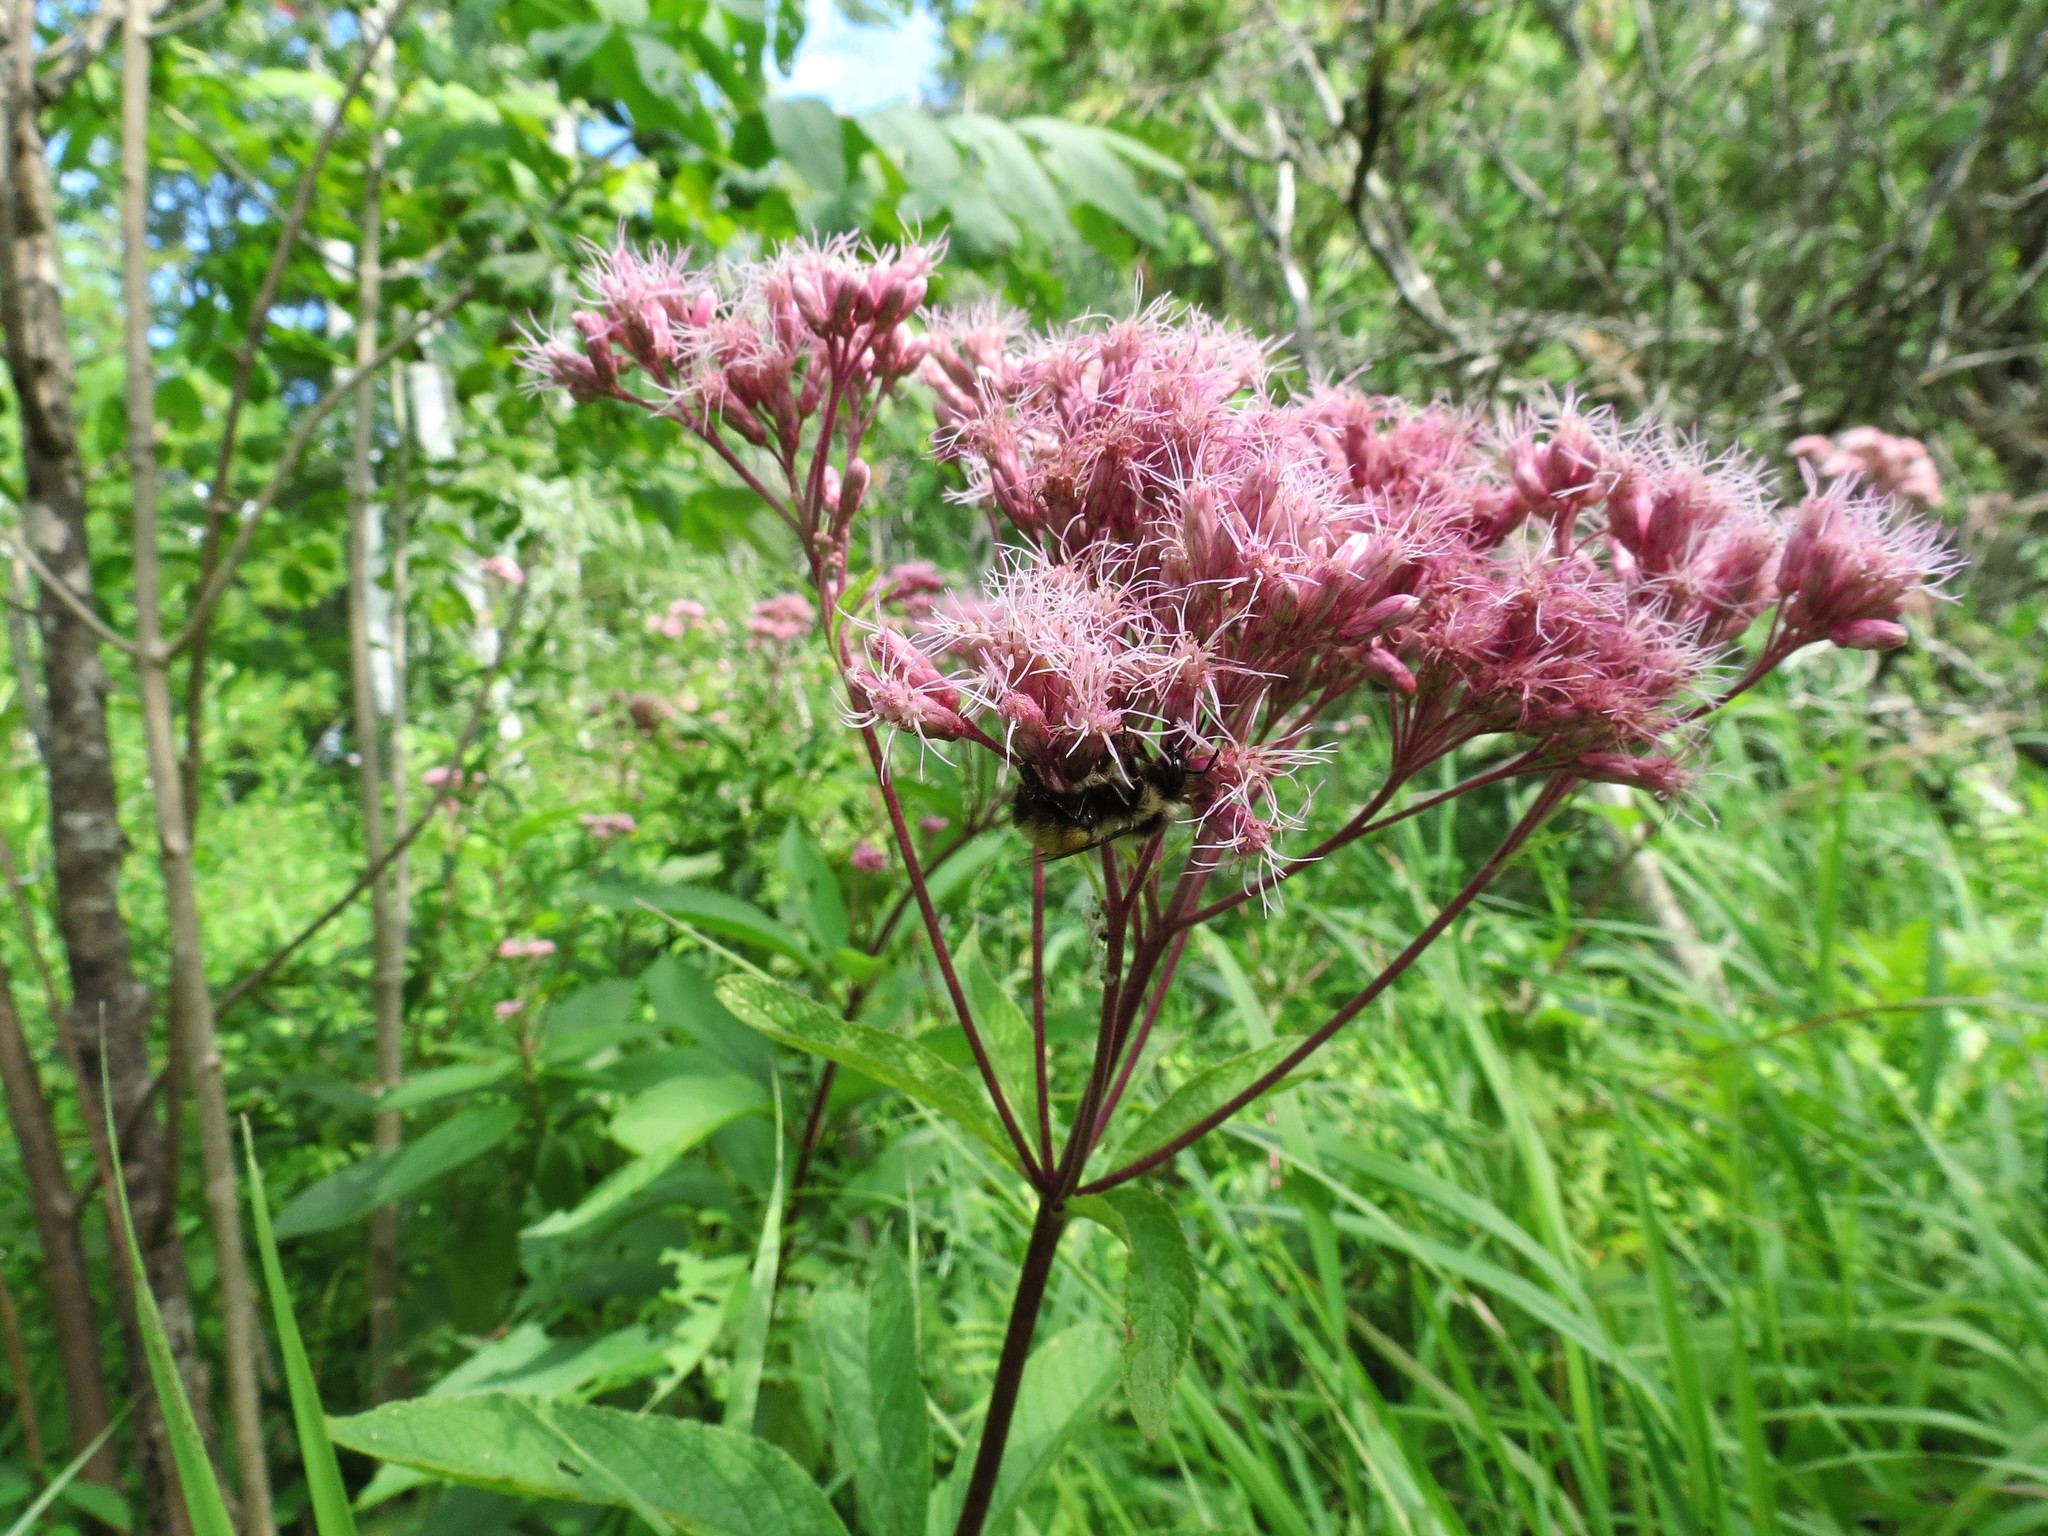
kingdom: Plantae
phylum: Tracheophyta
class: Magnoliopsida
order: Asterales
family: Asteraceae
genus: Eutrochium
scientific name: Eutrochium maculatum
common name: Spotted joe pye weed
